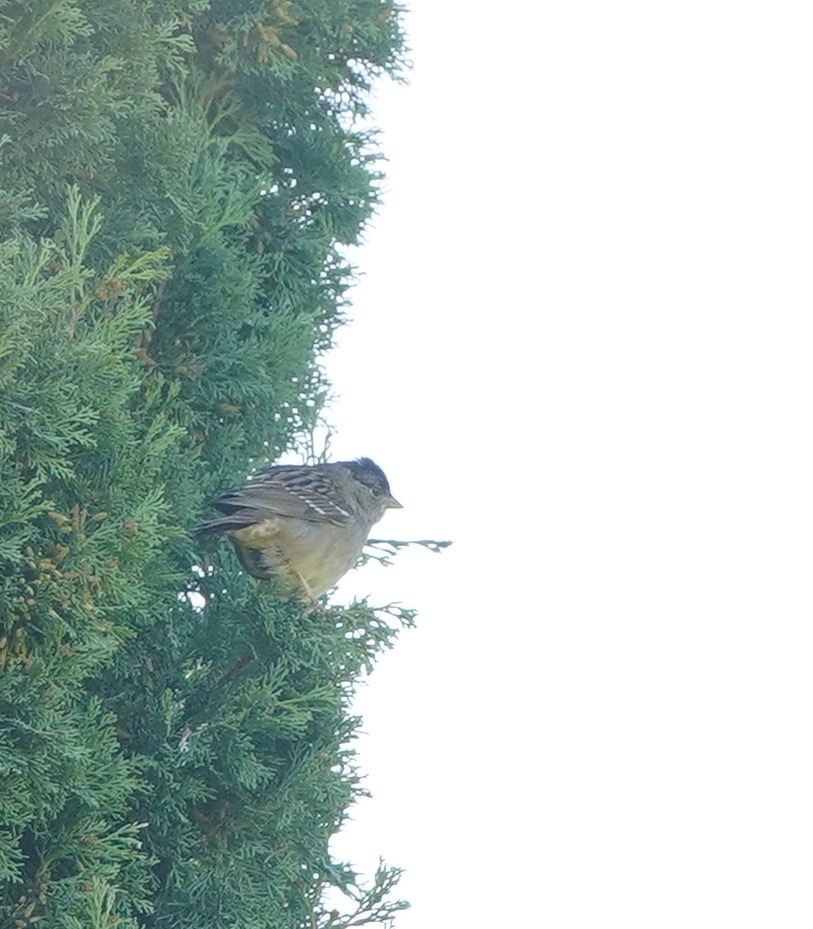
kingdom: Animalia
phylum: Chordata
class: Aves
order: Passeriformes
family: Passerellidae
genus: Zonotrichia
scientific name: Zonotrichia atricapilla
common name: Golden-crowned sparrow
